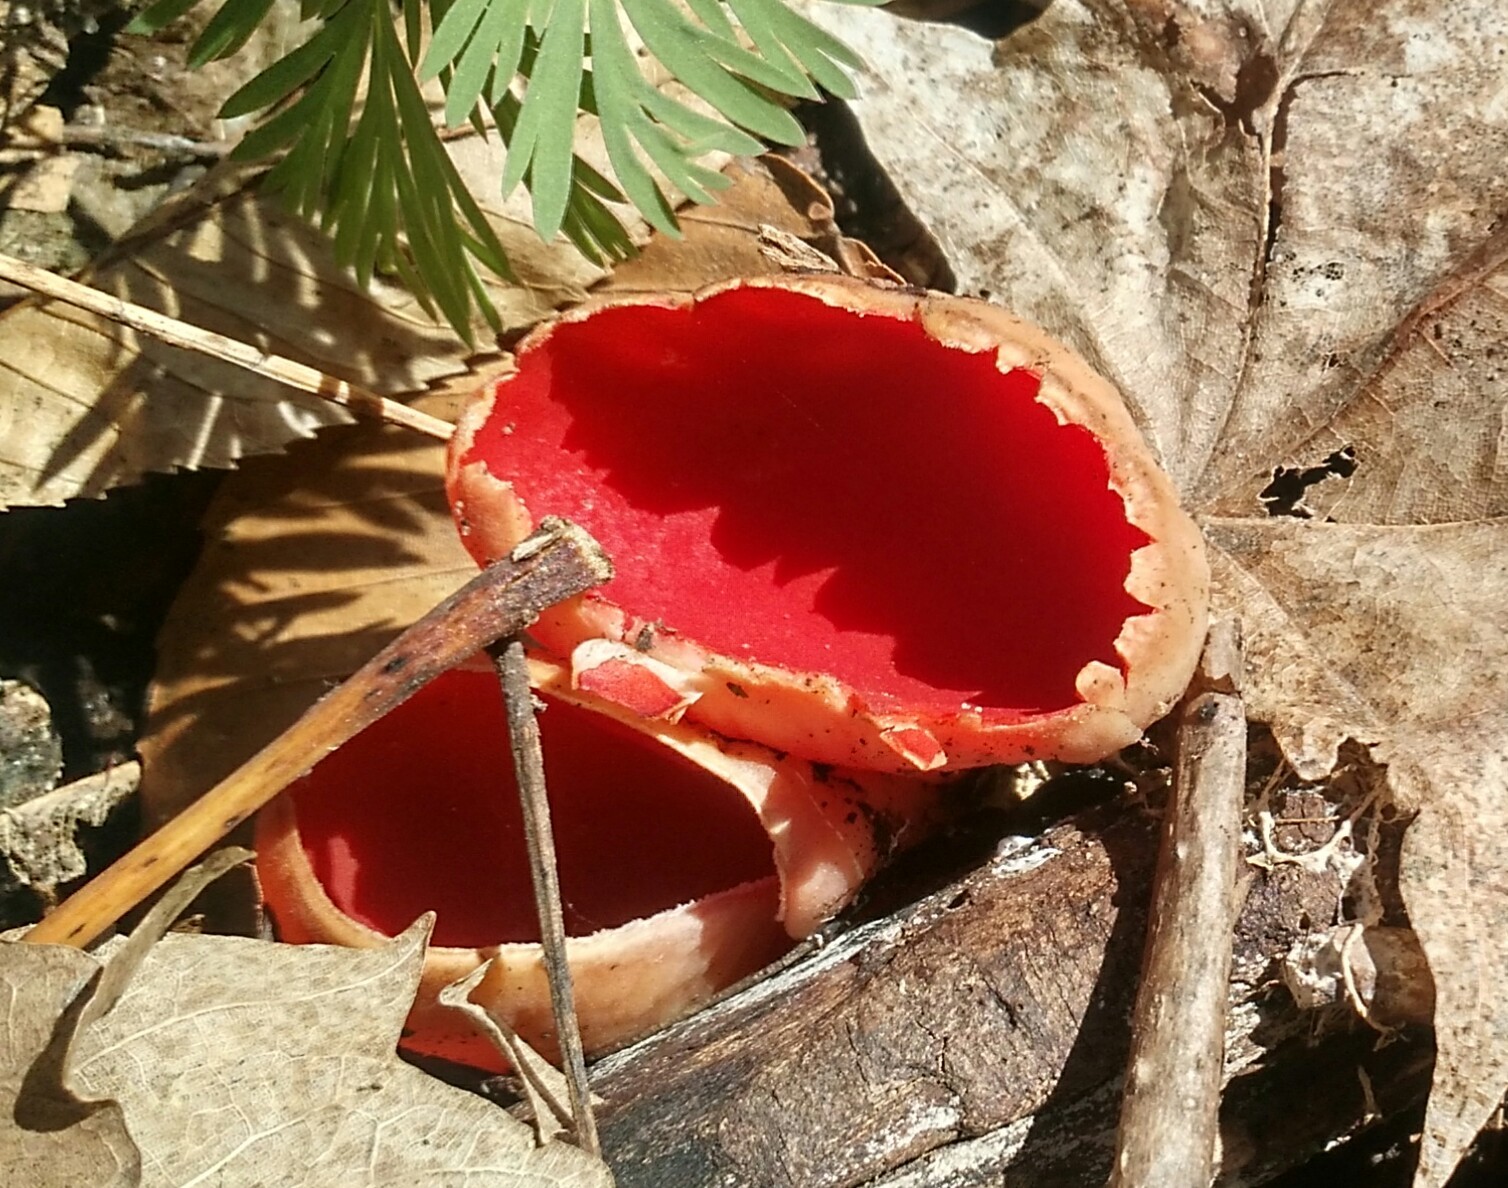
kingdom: Fungi
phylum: Ascomycota
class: Pezizomycetes
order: Pezizales
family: Sarcoscyphaceae
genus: Sarcoscypha
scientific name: Sarcoscypha
